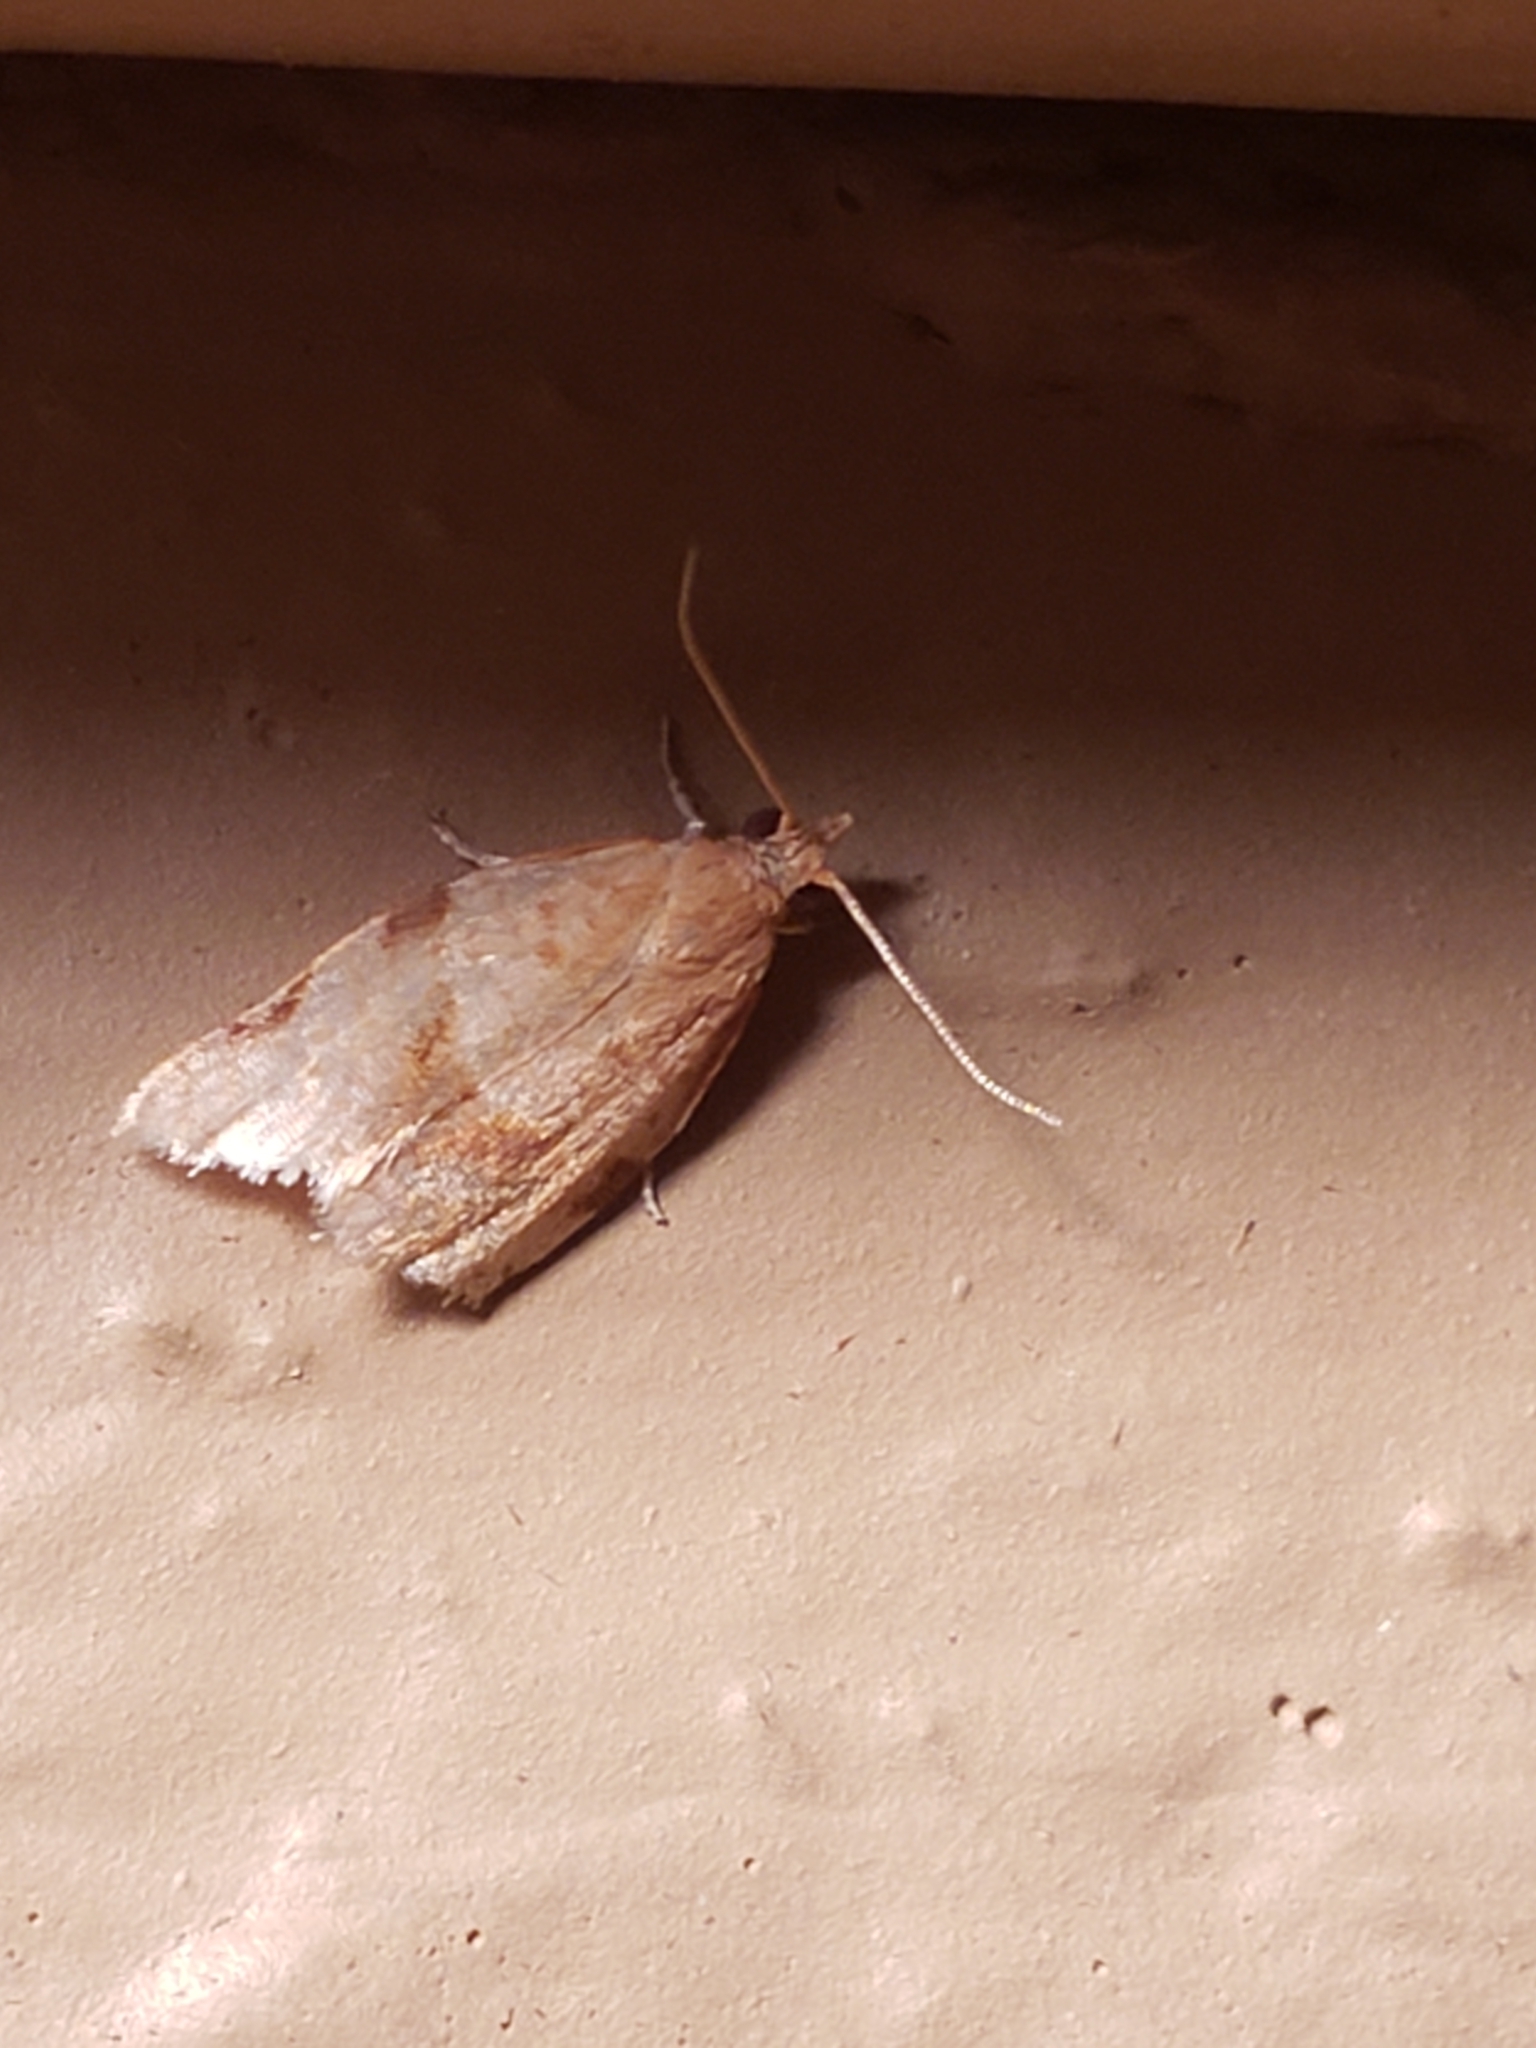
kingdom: Animalia
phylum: Arthropoda
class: Insecta
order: Lepidoptera
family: Tortricidae
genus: Clepsis
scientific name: Clepsis virescana
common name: Greenish apple moth
